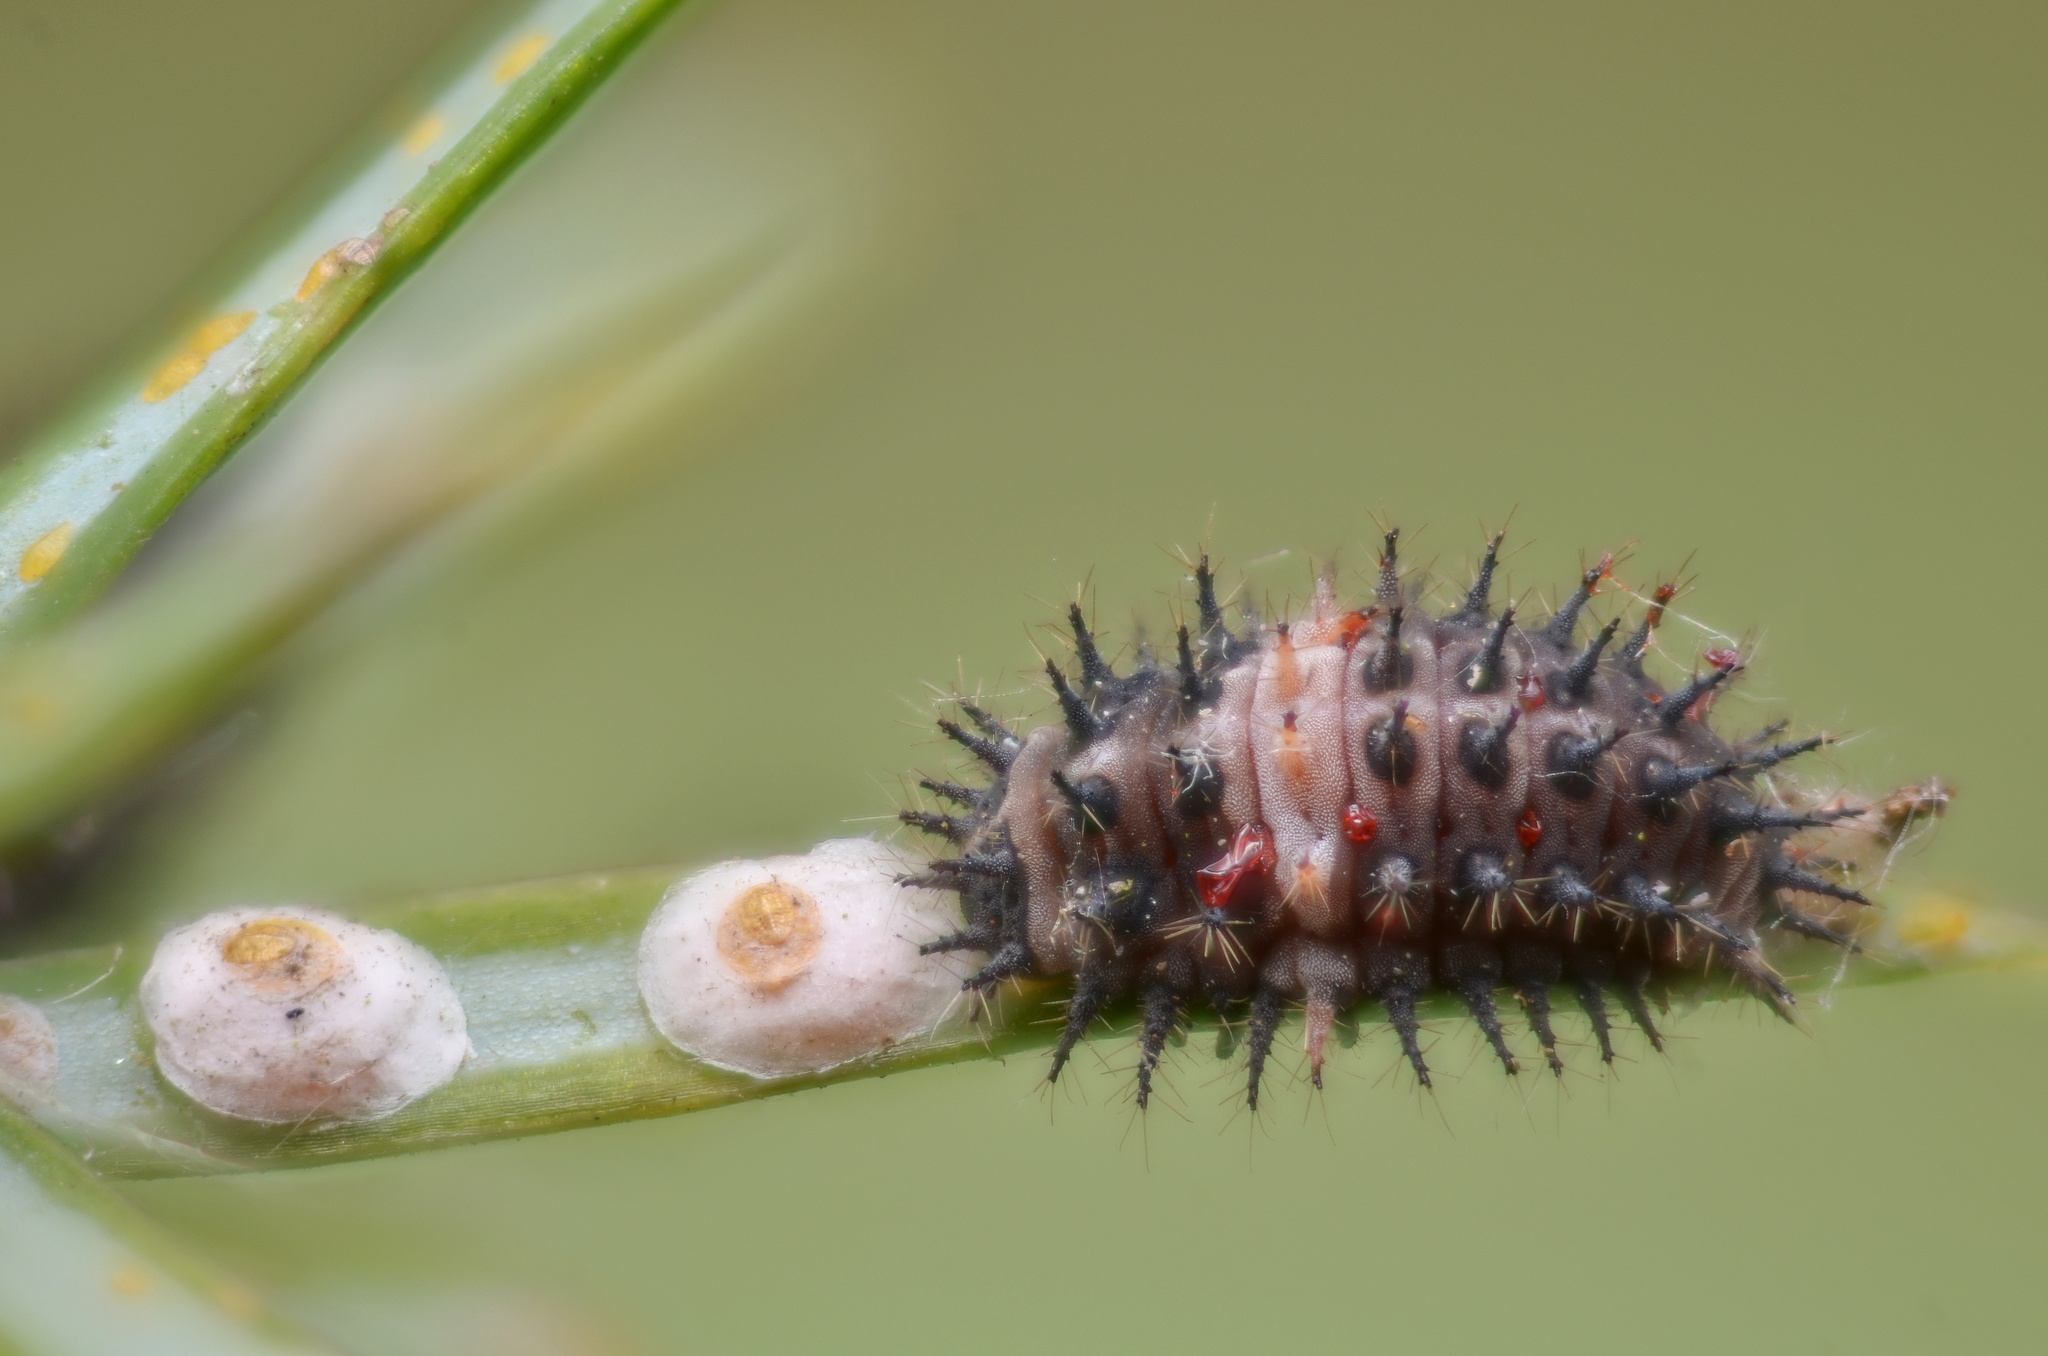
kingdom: Animalia
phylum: Arthropoda
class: Insecta
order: Coleoptera
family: Coccinellidae
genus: Chilocorus
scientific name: Chilocorus bipustulatus
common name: Heather ladybird
